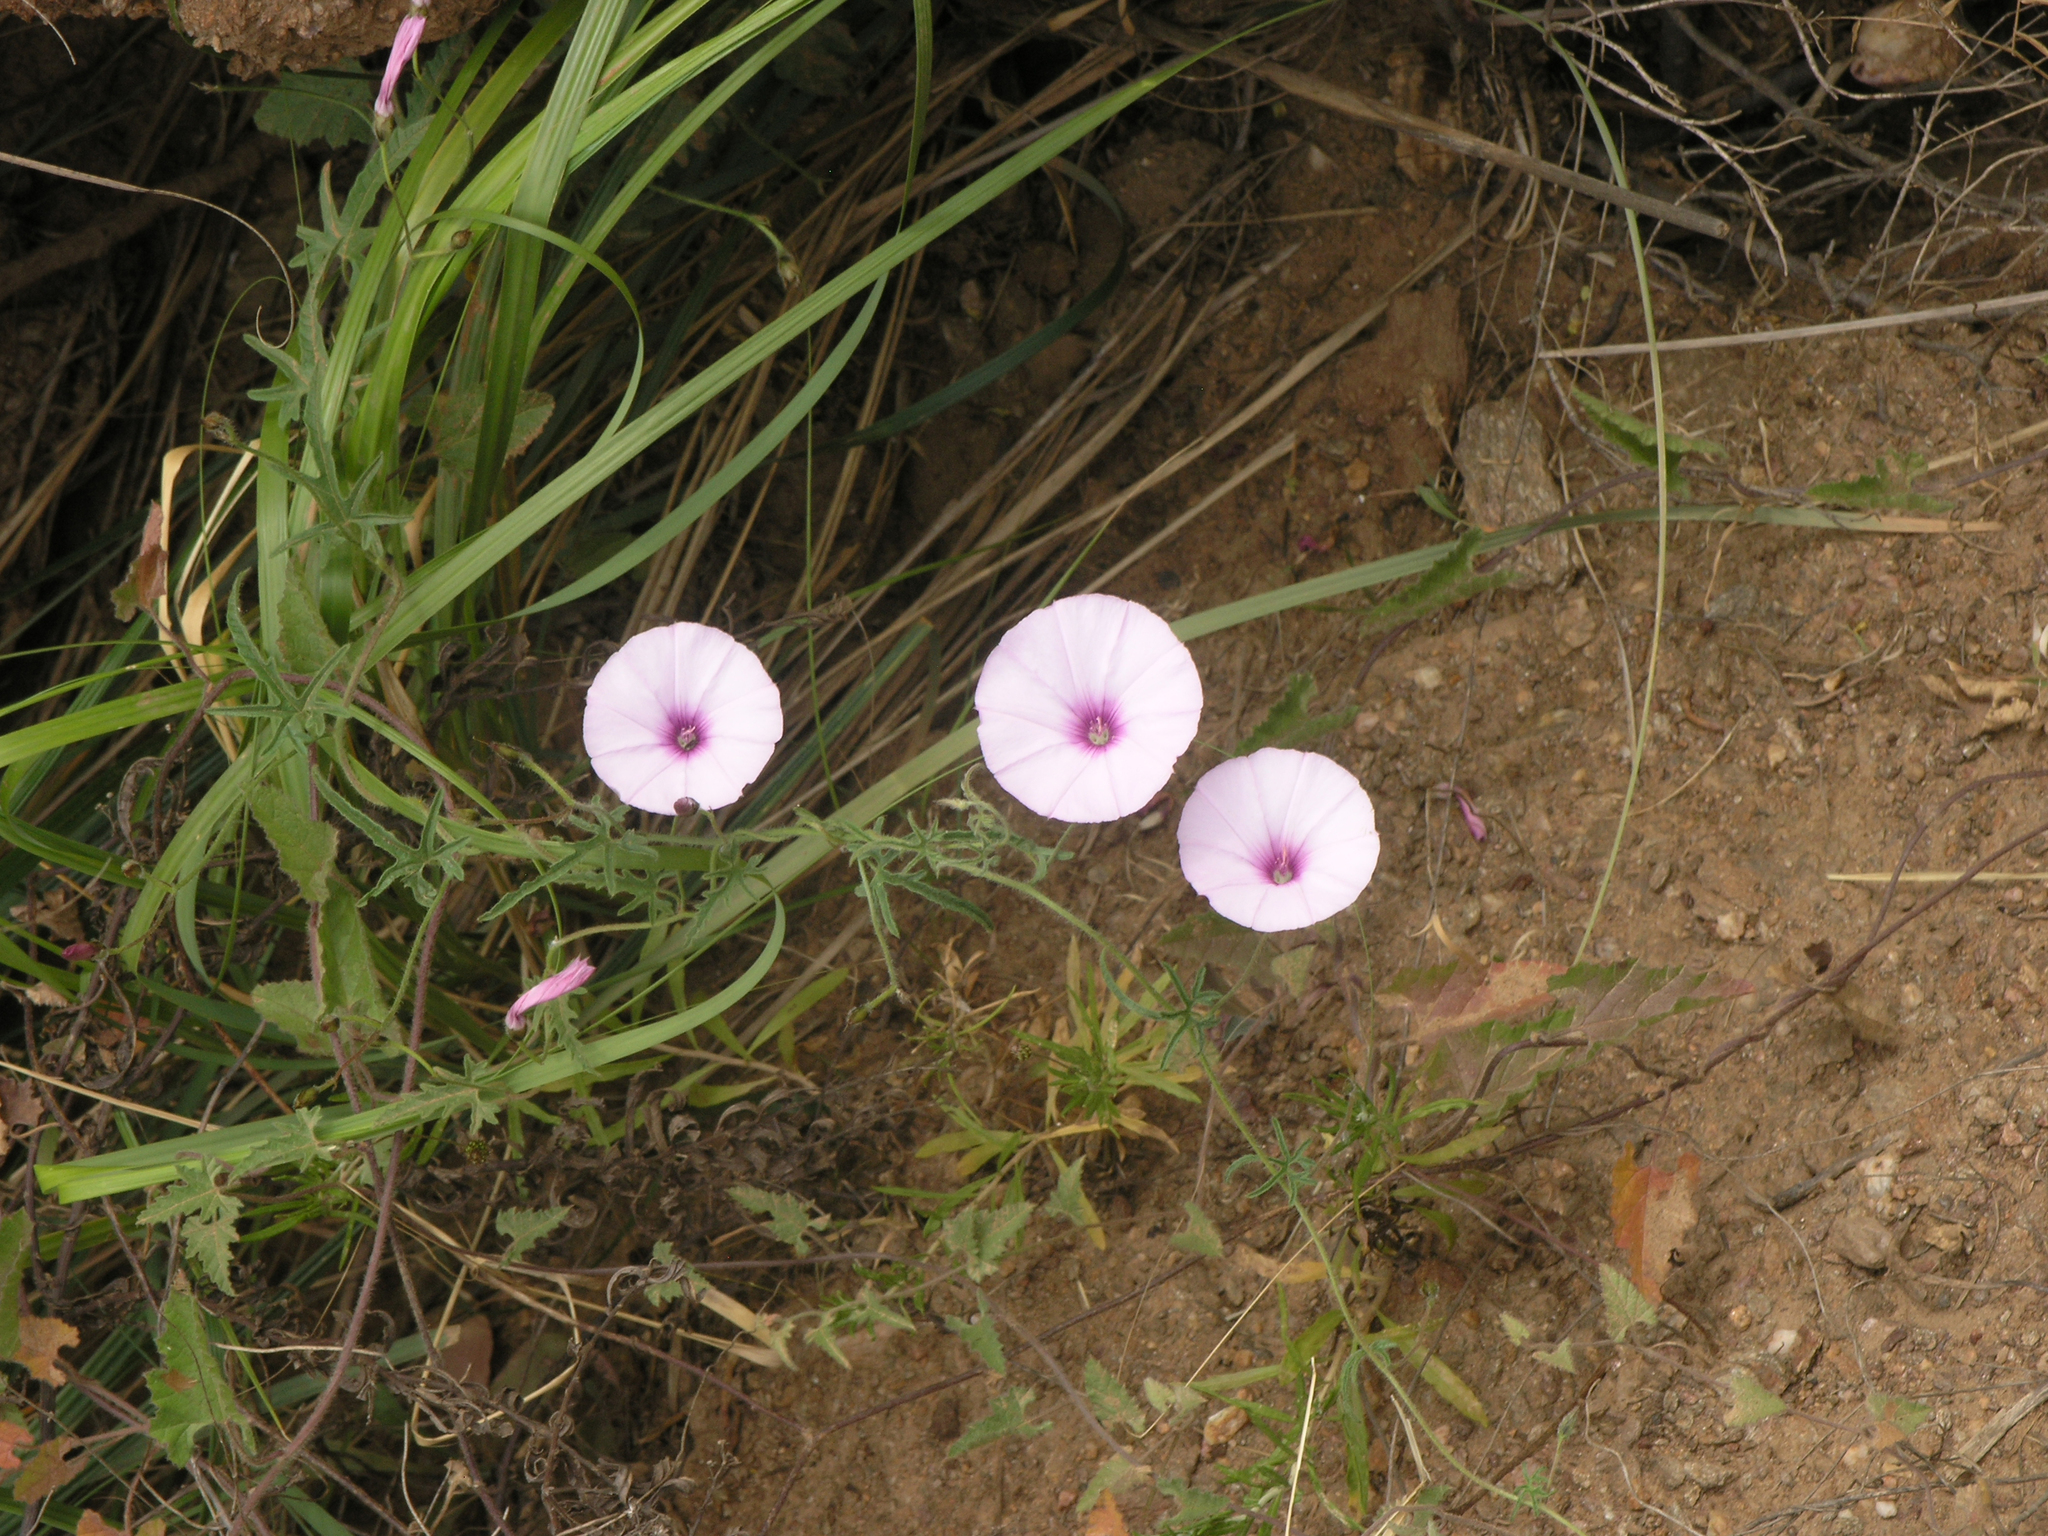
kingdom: Plantae
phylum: Tracheophyta
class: Magnoliopsida
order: Solanales
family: Convolvulaceae
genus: Convolvulus
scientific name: Convolvulus althaeoides
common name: Mallow bindweed
